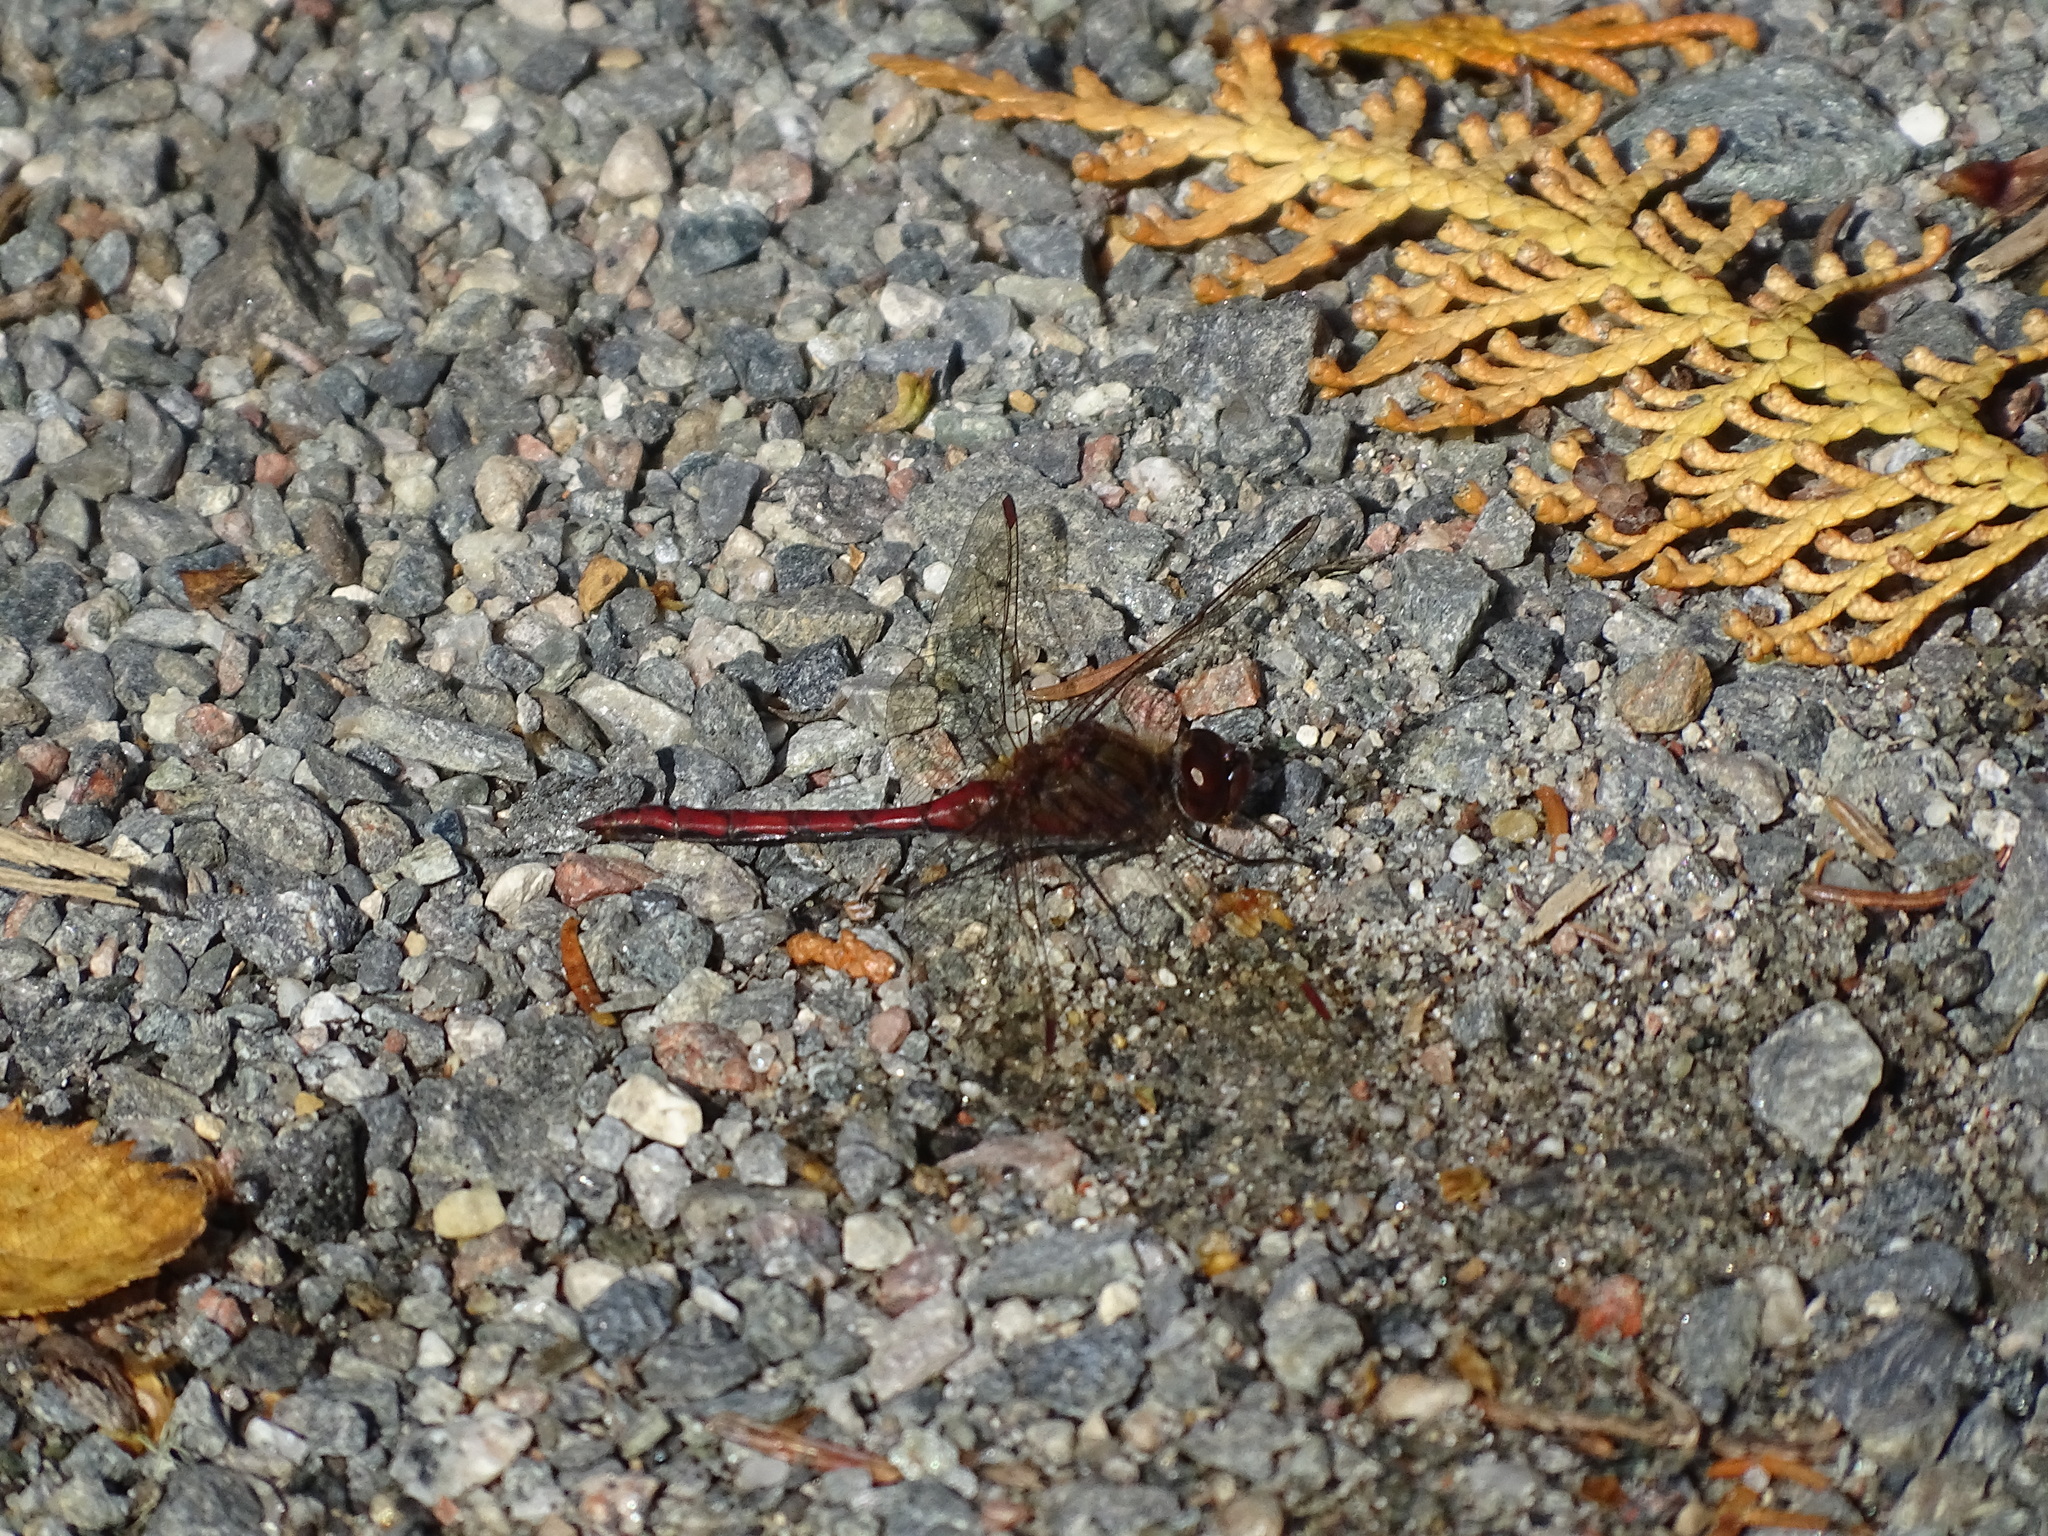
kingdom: Animalia
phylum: Arthropoda
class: Insecta
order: Odonata
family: Libellulidae
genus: Sympetrum
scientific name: Sympetrum costiferum
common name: Saffron-winged meadowhawk
